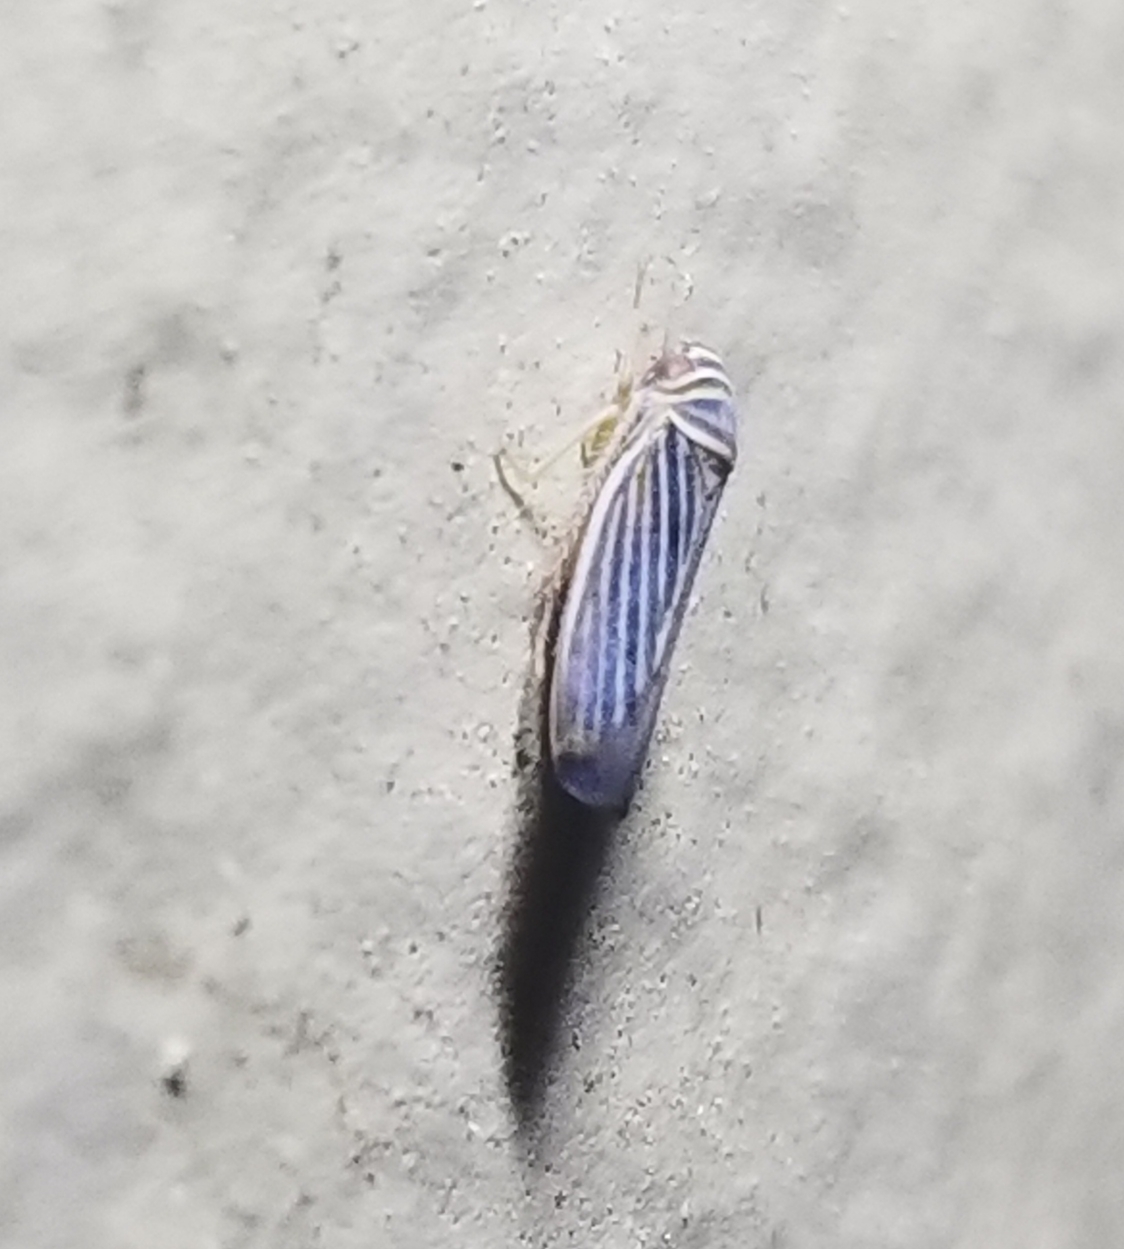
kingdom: Animalia
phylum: Arthropoda
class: Insecta
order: Hemiptera
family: Cicadellidae
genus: Tylozygus
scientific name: Tylozygus bifidus
